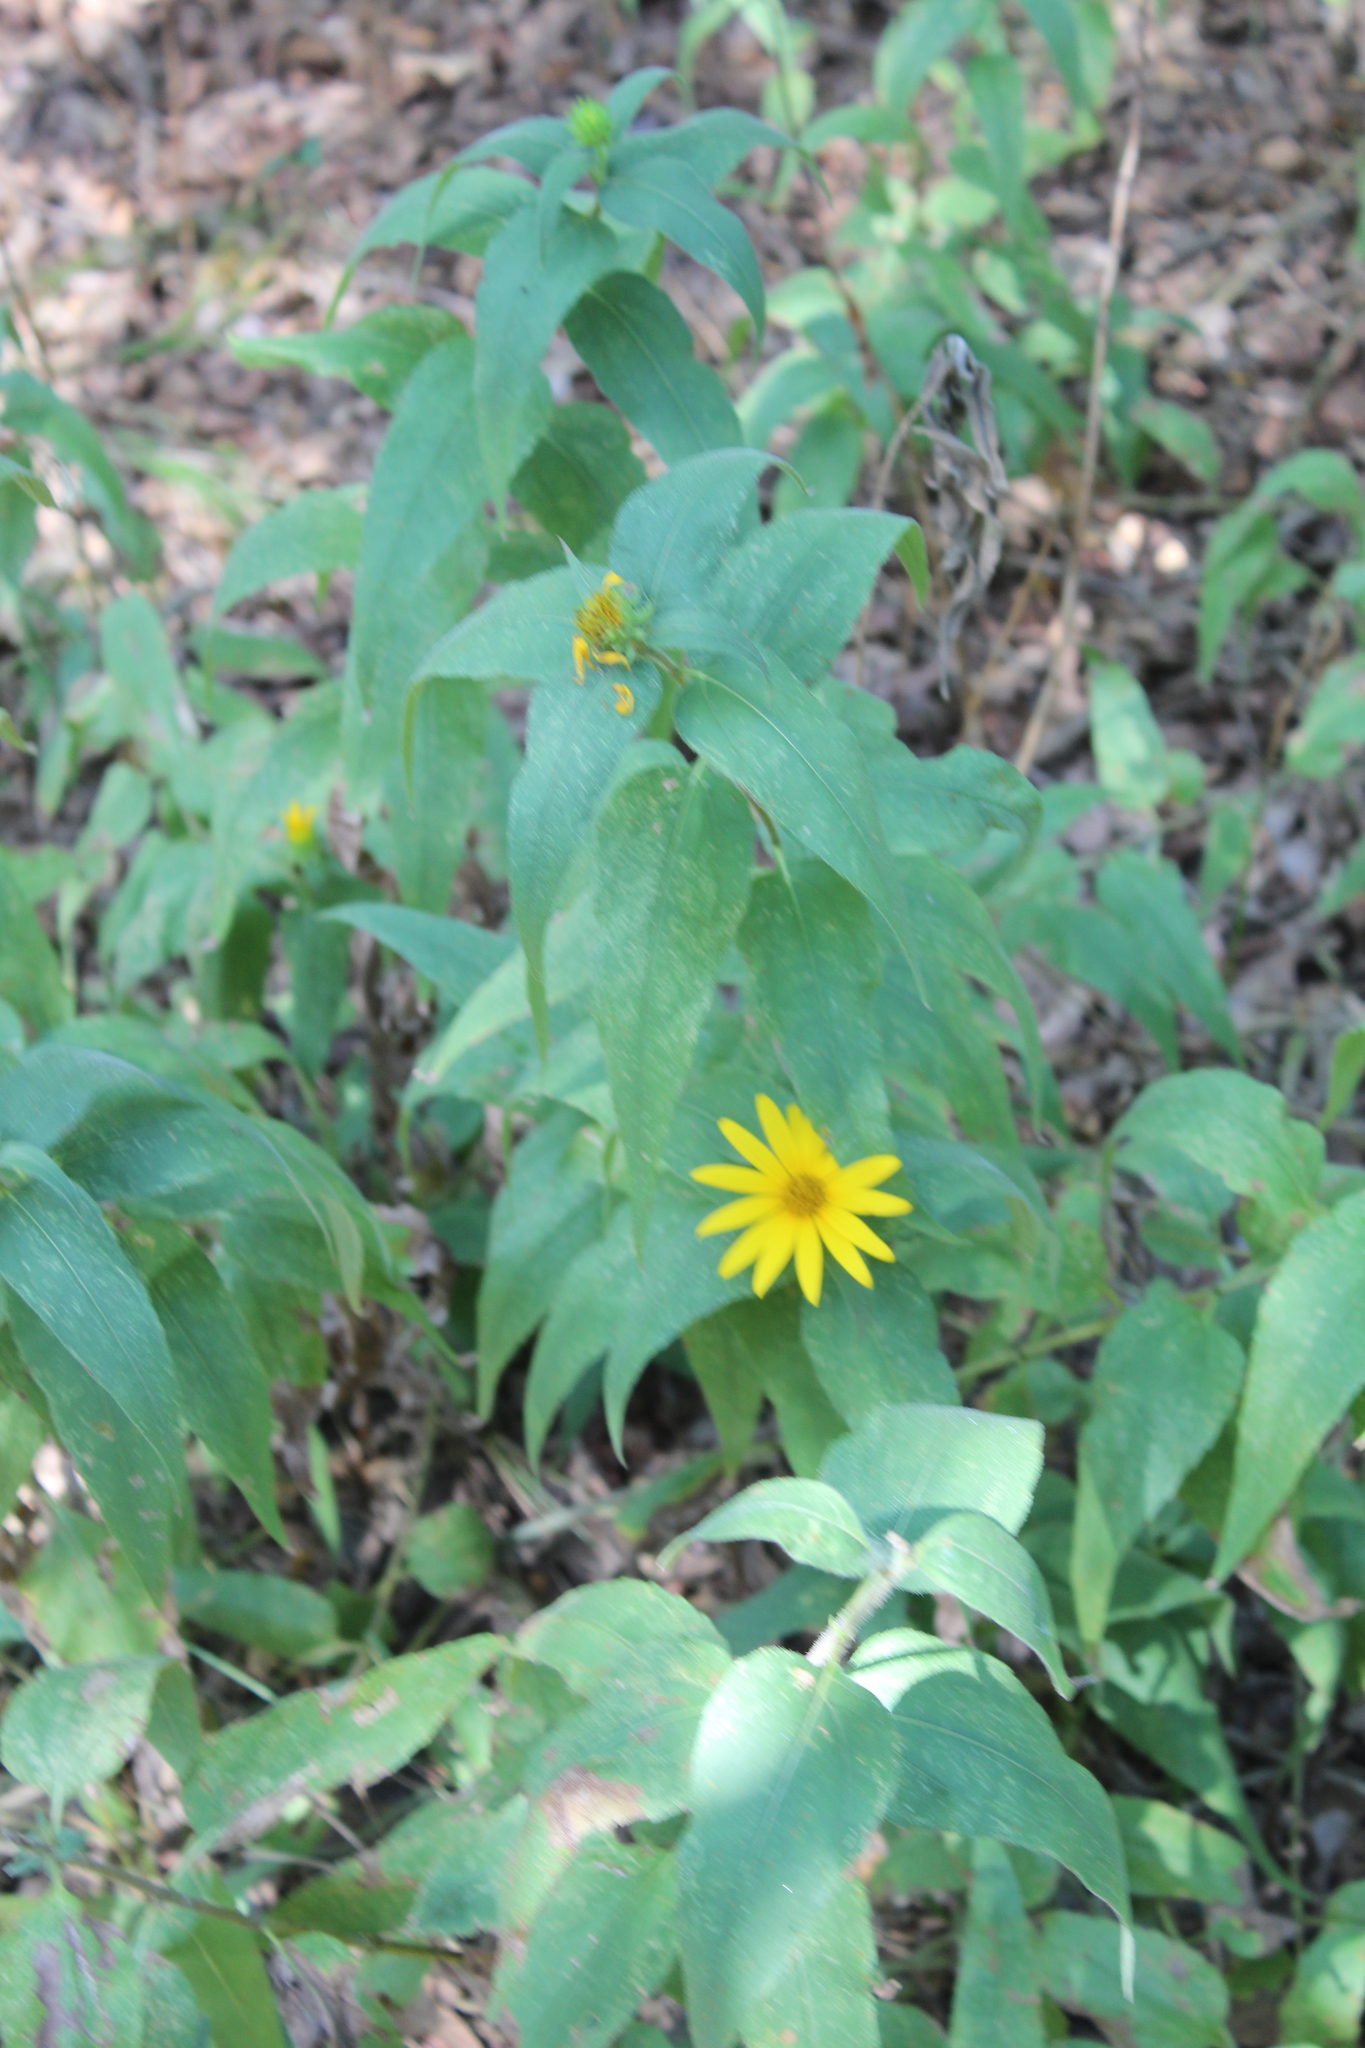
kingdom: Plantae
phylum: Tracheophyta
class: Magnoliopsida
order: Asterales
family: Asteraceae
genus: Helianthus
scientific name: Helianthus hirsutus
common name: Hairy sunflower
